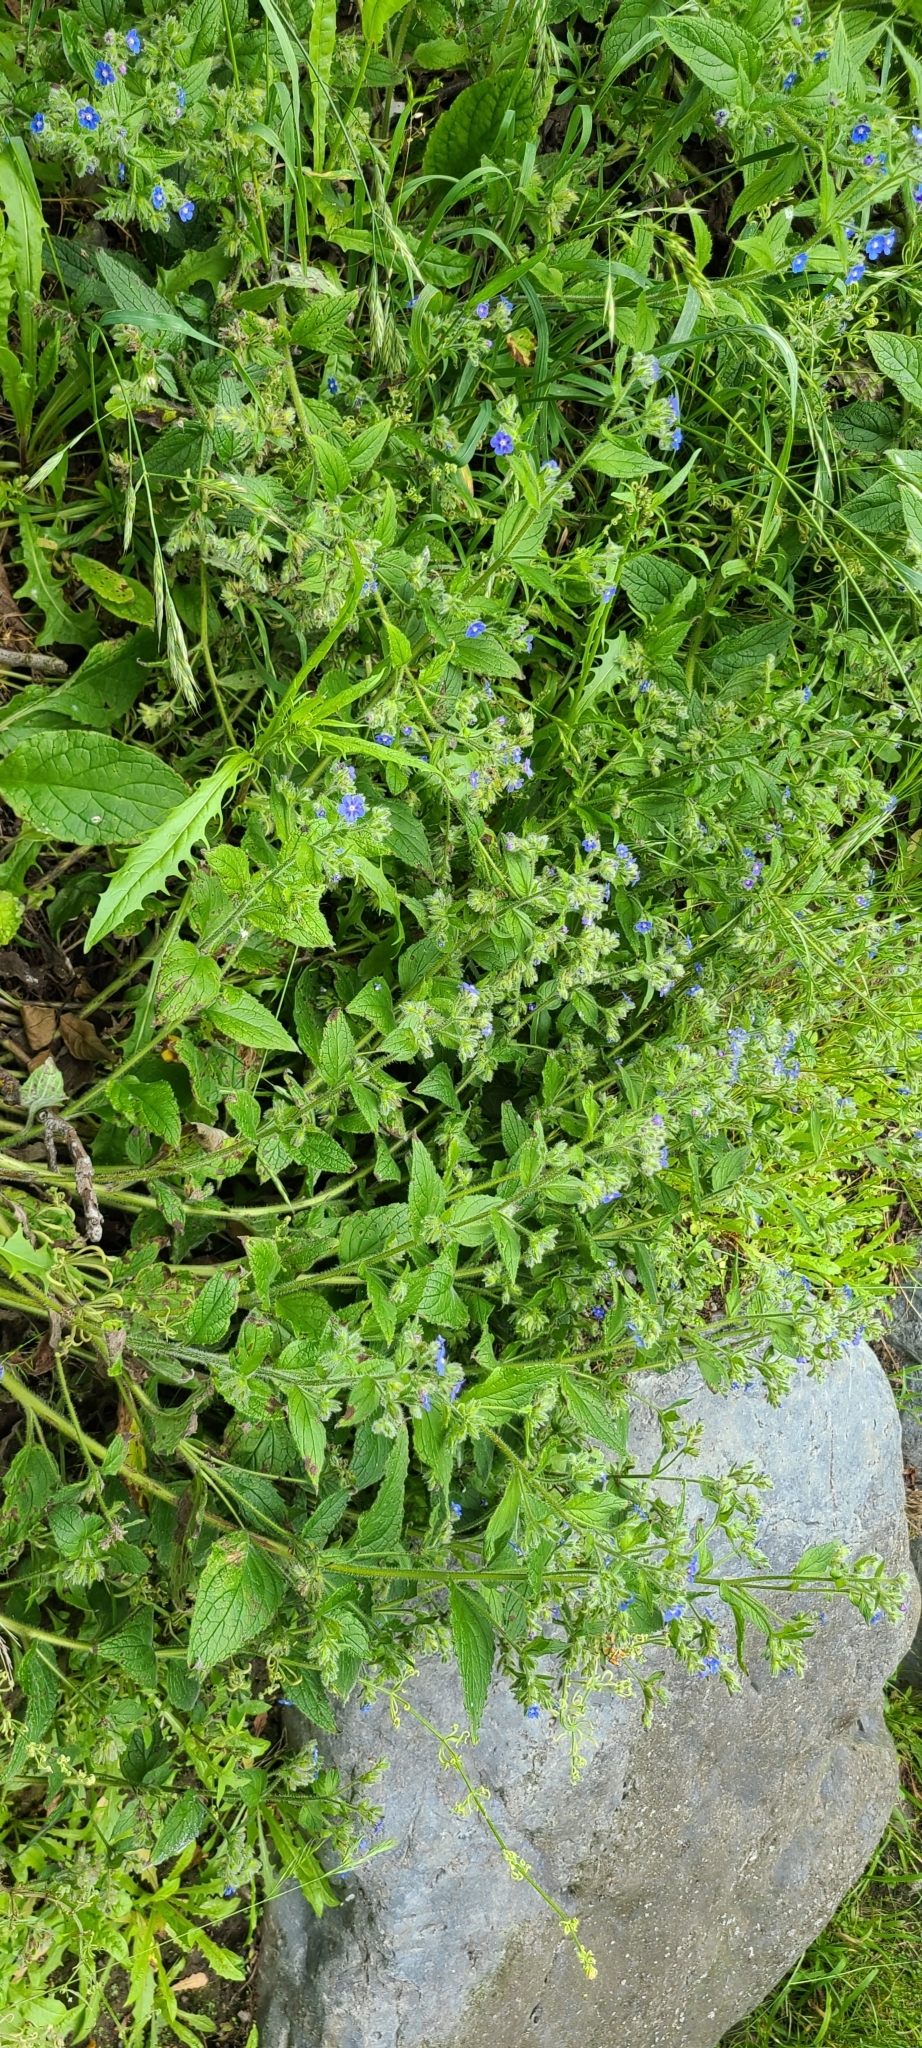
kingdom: Plantae
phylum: Tracheophyta
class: Magnoliopsida
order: Boraginales
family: Boraginaceae
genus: Pentaglottis
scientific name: Pentaglottis sempervirens
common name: Green alkanet
